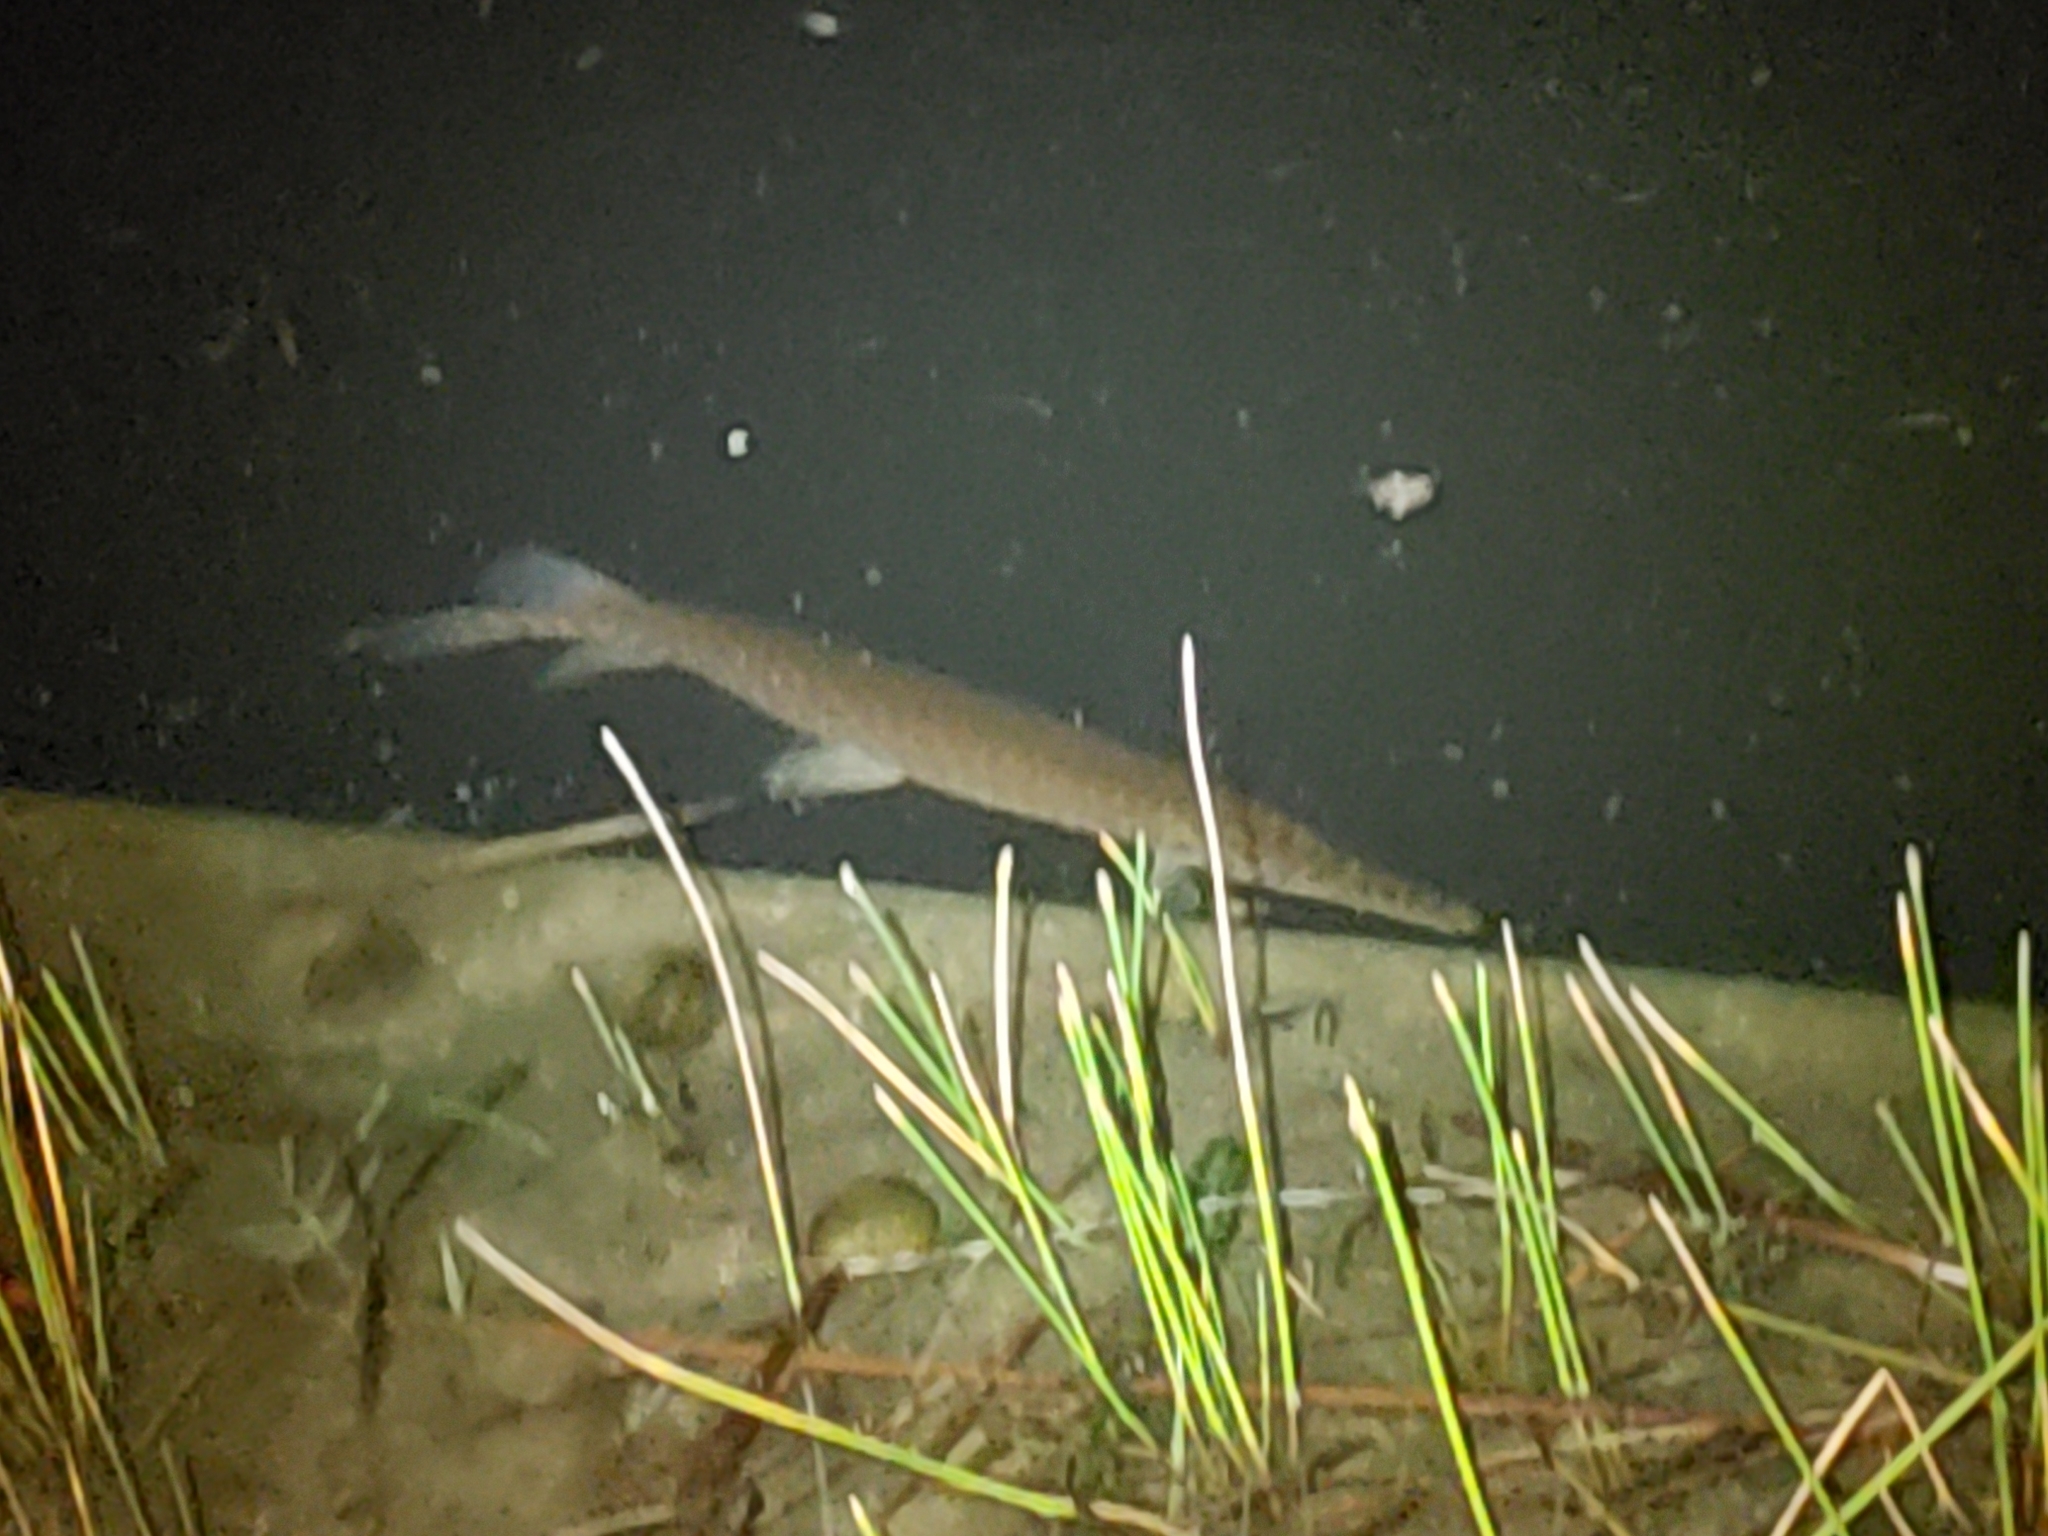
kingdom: Animalia
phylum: Chordata
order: Lepisosteiformes
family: Lepisosteidae
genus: Lepisosteus
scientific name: Lepisosteus platyrhincus
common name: Florida gar
